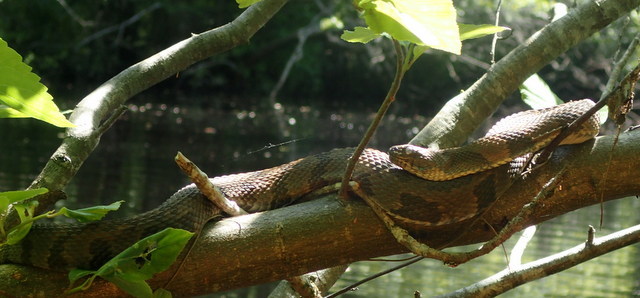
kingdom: Animalia
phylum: Chordata
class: Squamata
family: Colubridae
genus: Nerodia
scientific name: Nerodia taxispilota
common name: Brown water snake
